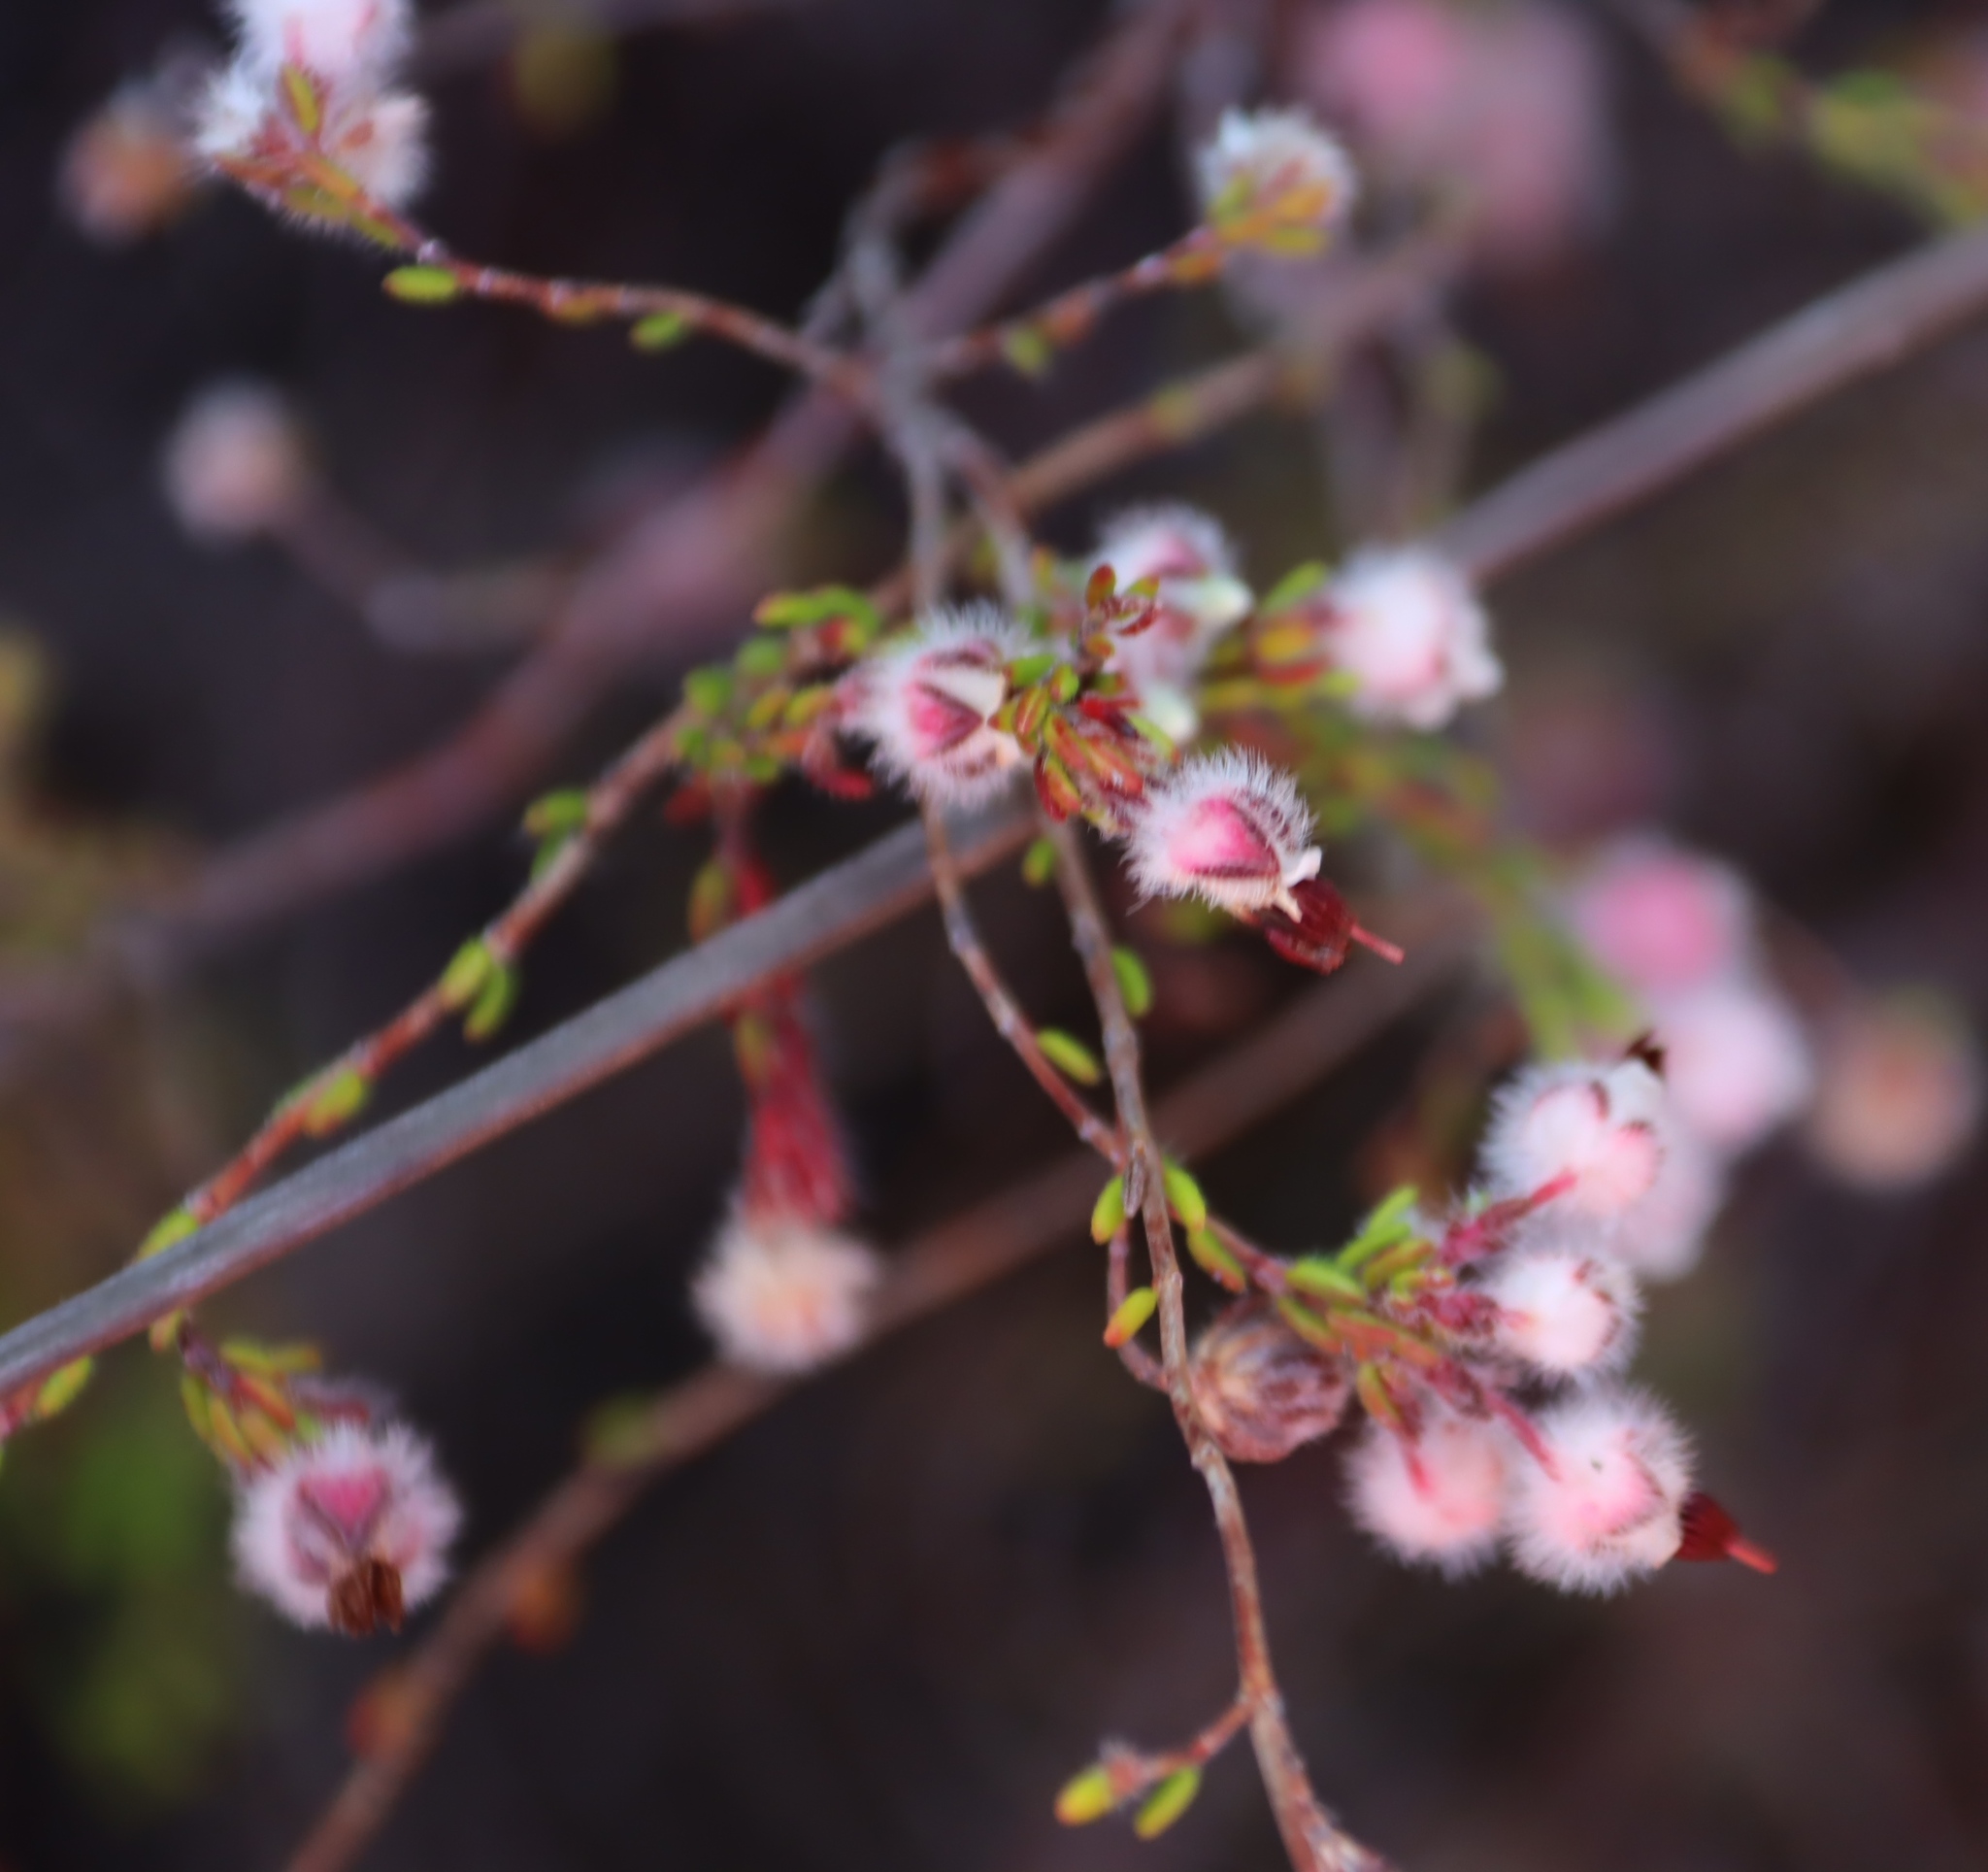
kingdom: Plantae
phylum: Tracheophyta
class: Magnoliopsida
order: Ericales
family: Ericaceae
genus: Erica
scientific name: Erica bruniades
